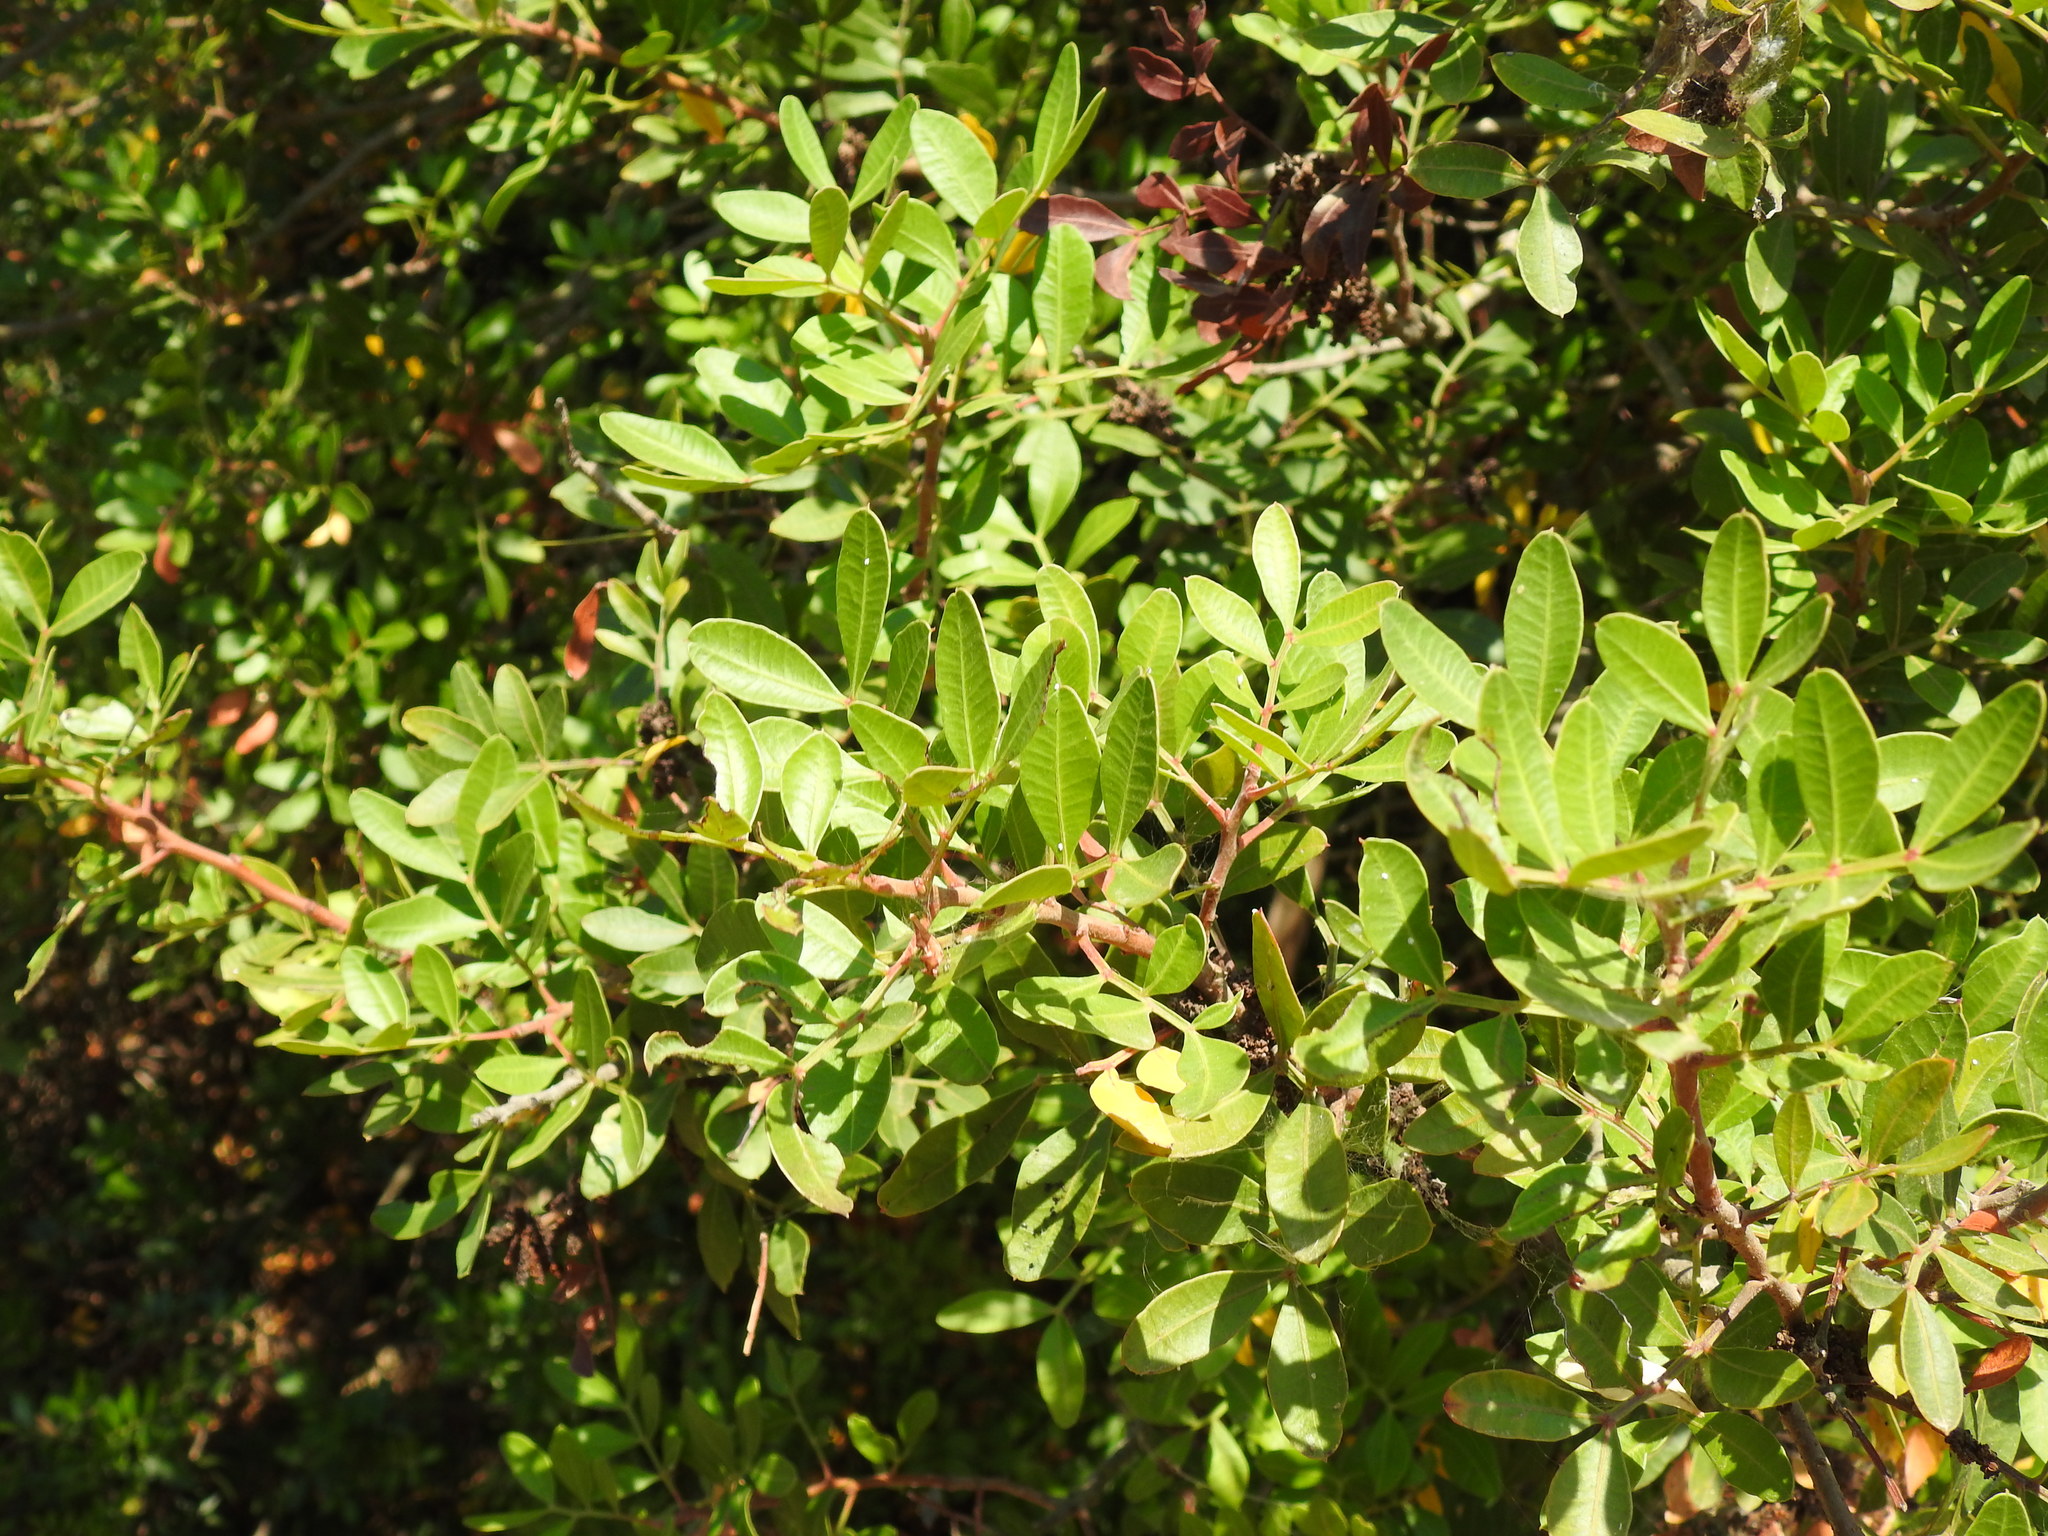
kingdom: Plantae
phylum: Tracheophyta
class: Magnoliopsida
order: Sapindales
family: Anacardiaceae
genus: Pistacia
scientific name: Pistacia lentiscus
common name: Lentisk
